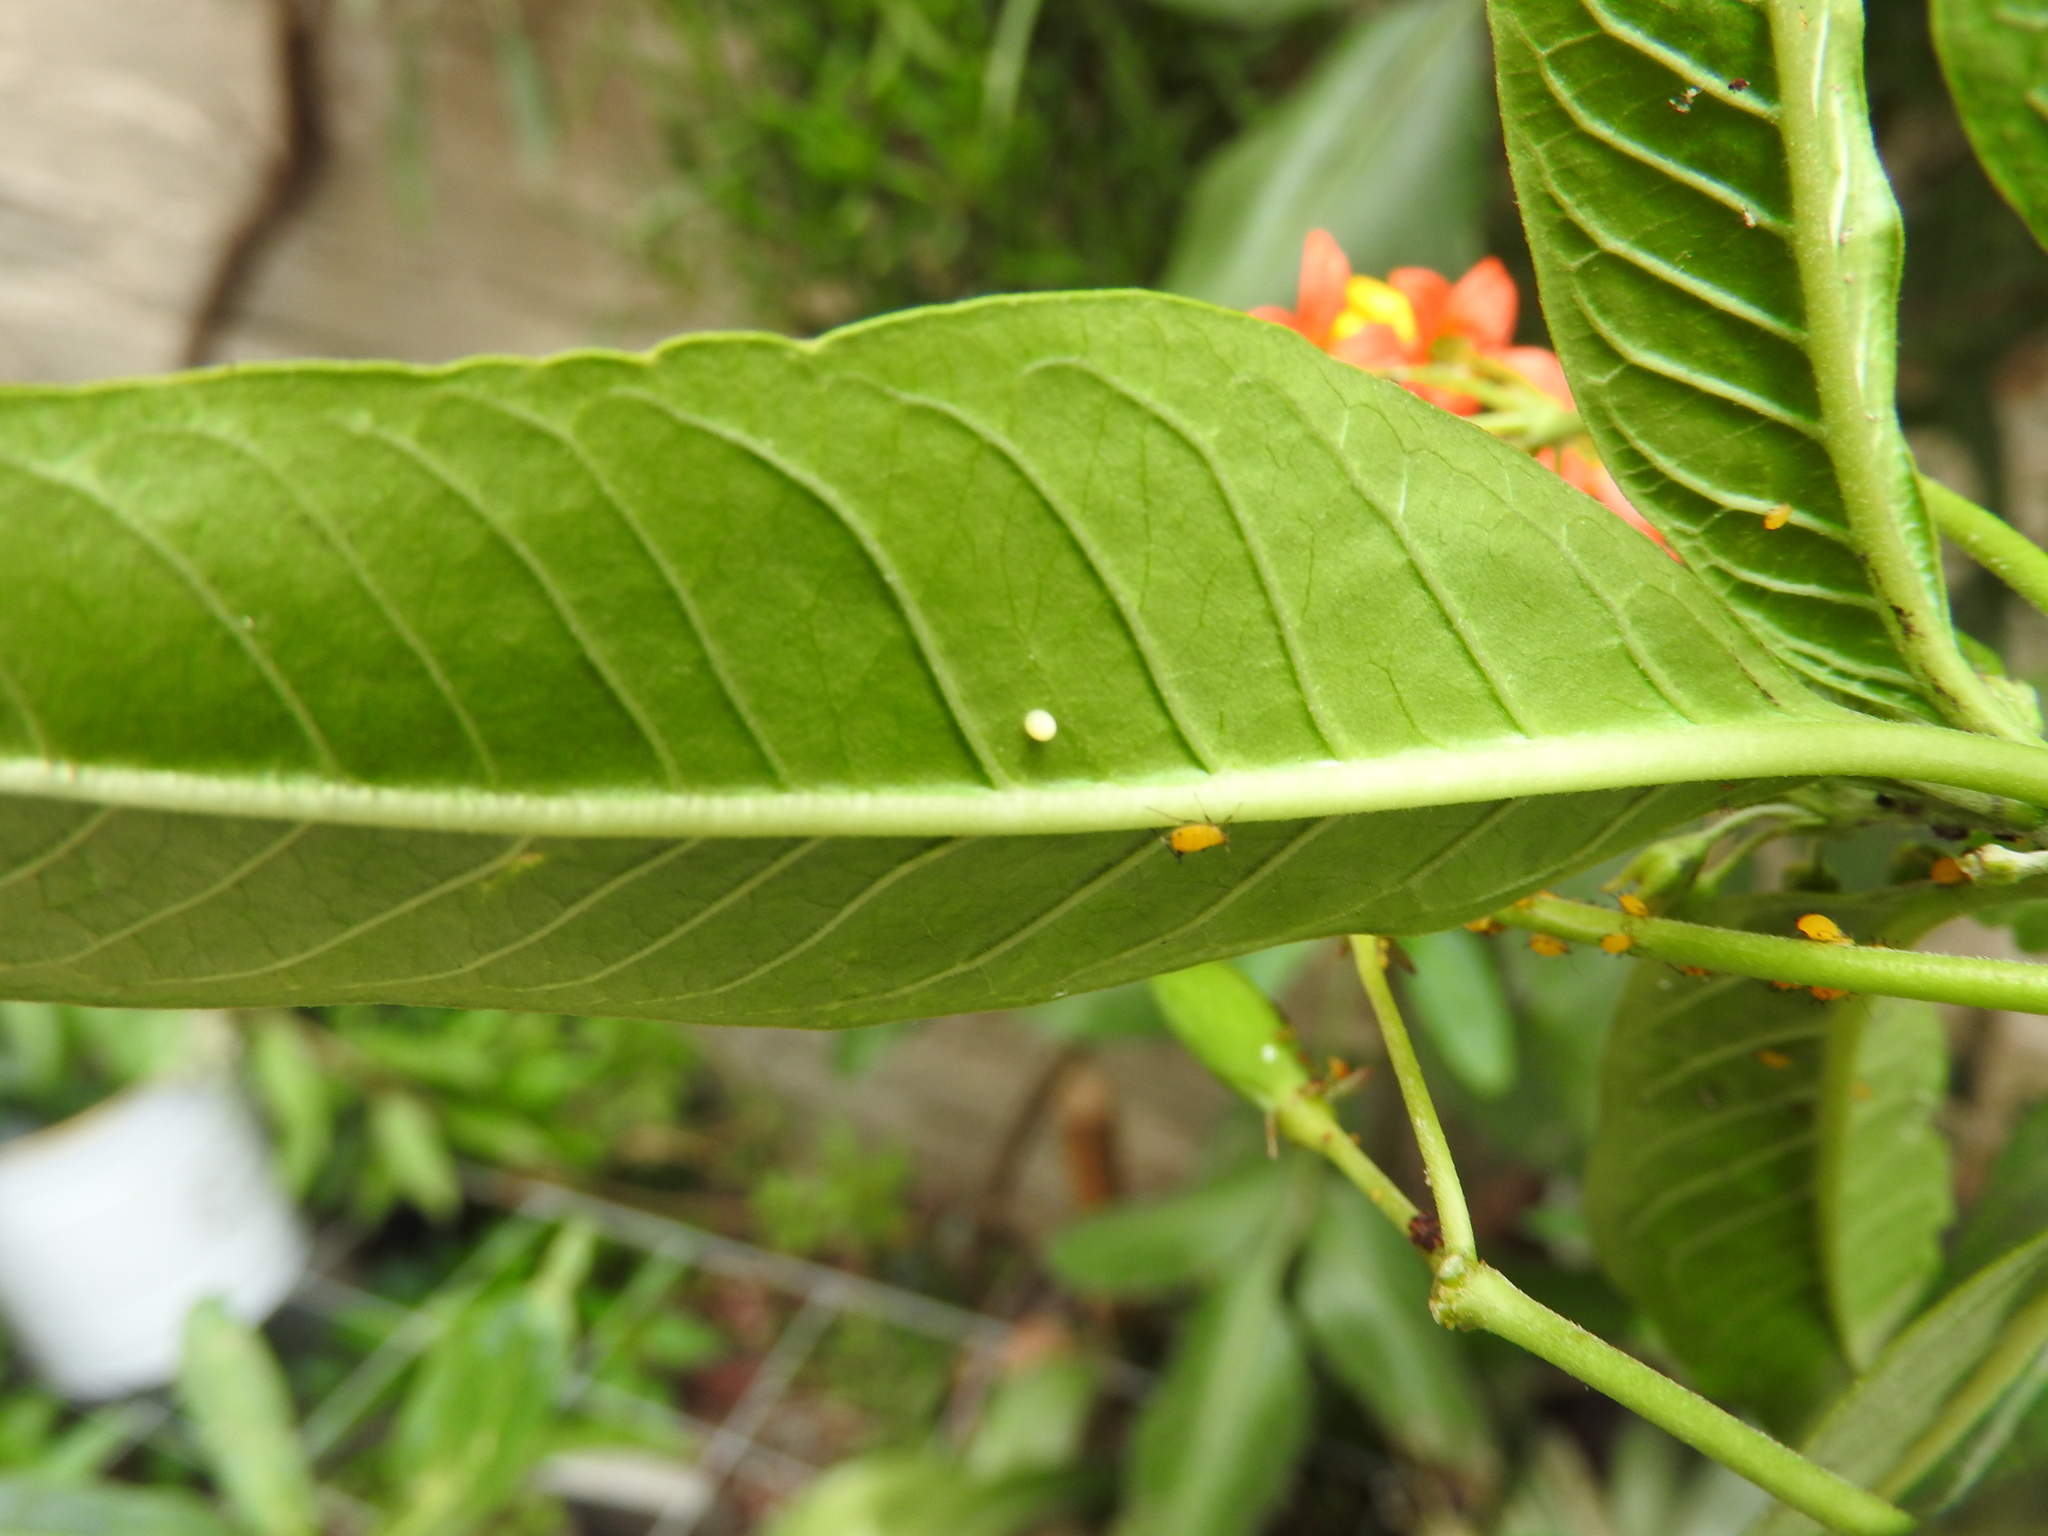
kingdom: Animalia
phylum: Arthropoda
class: Insecta
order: Lepidoptera
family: Nymphalidae
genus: Danaus
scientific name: Danaus plexippus
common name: Monarch
